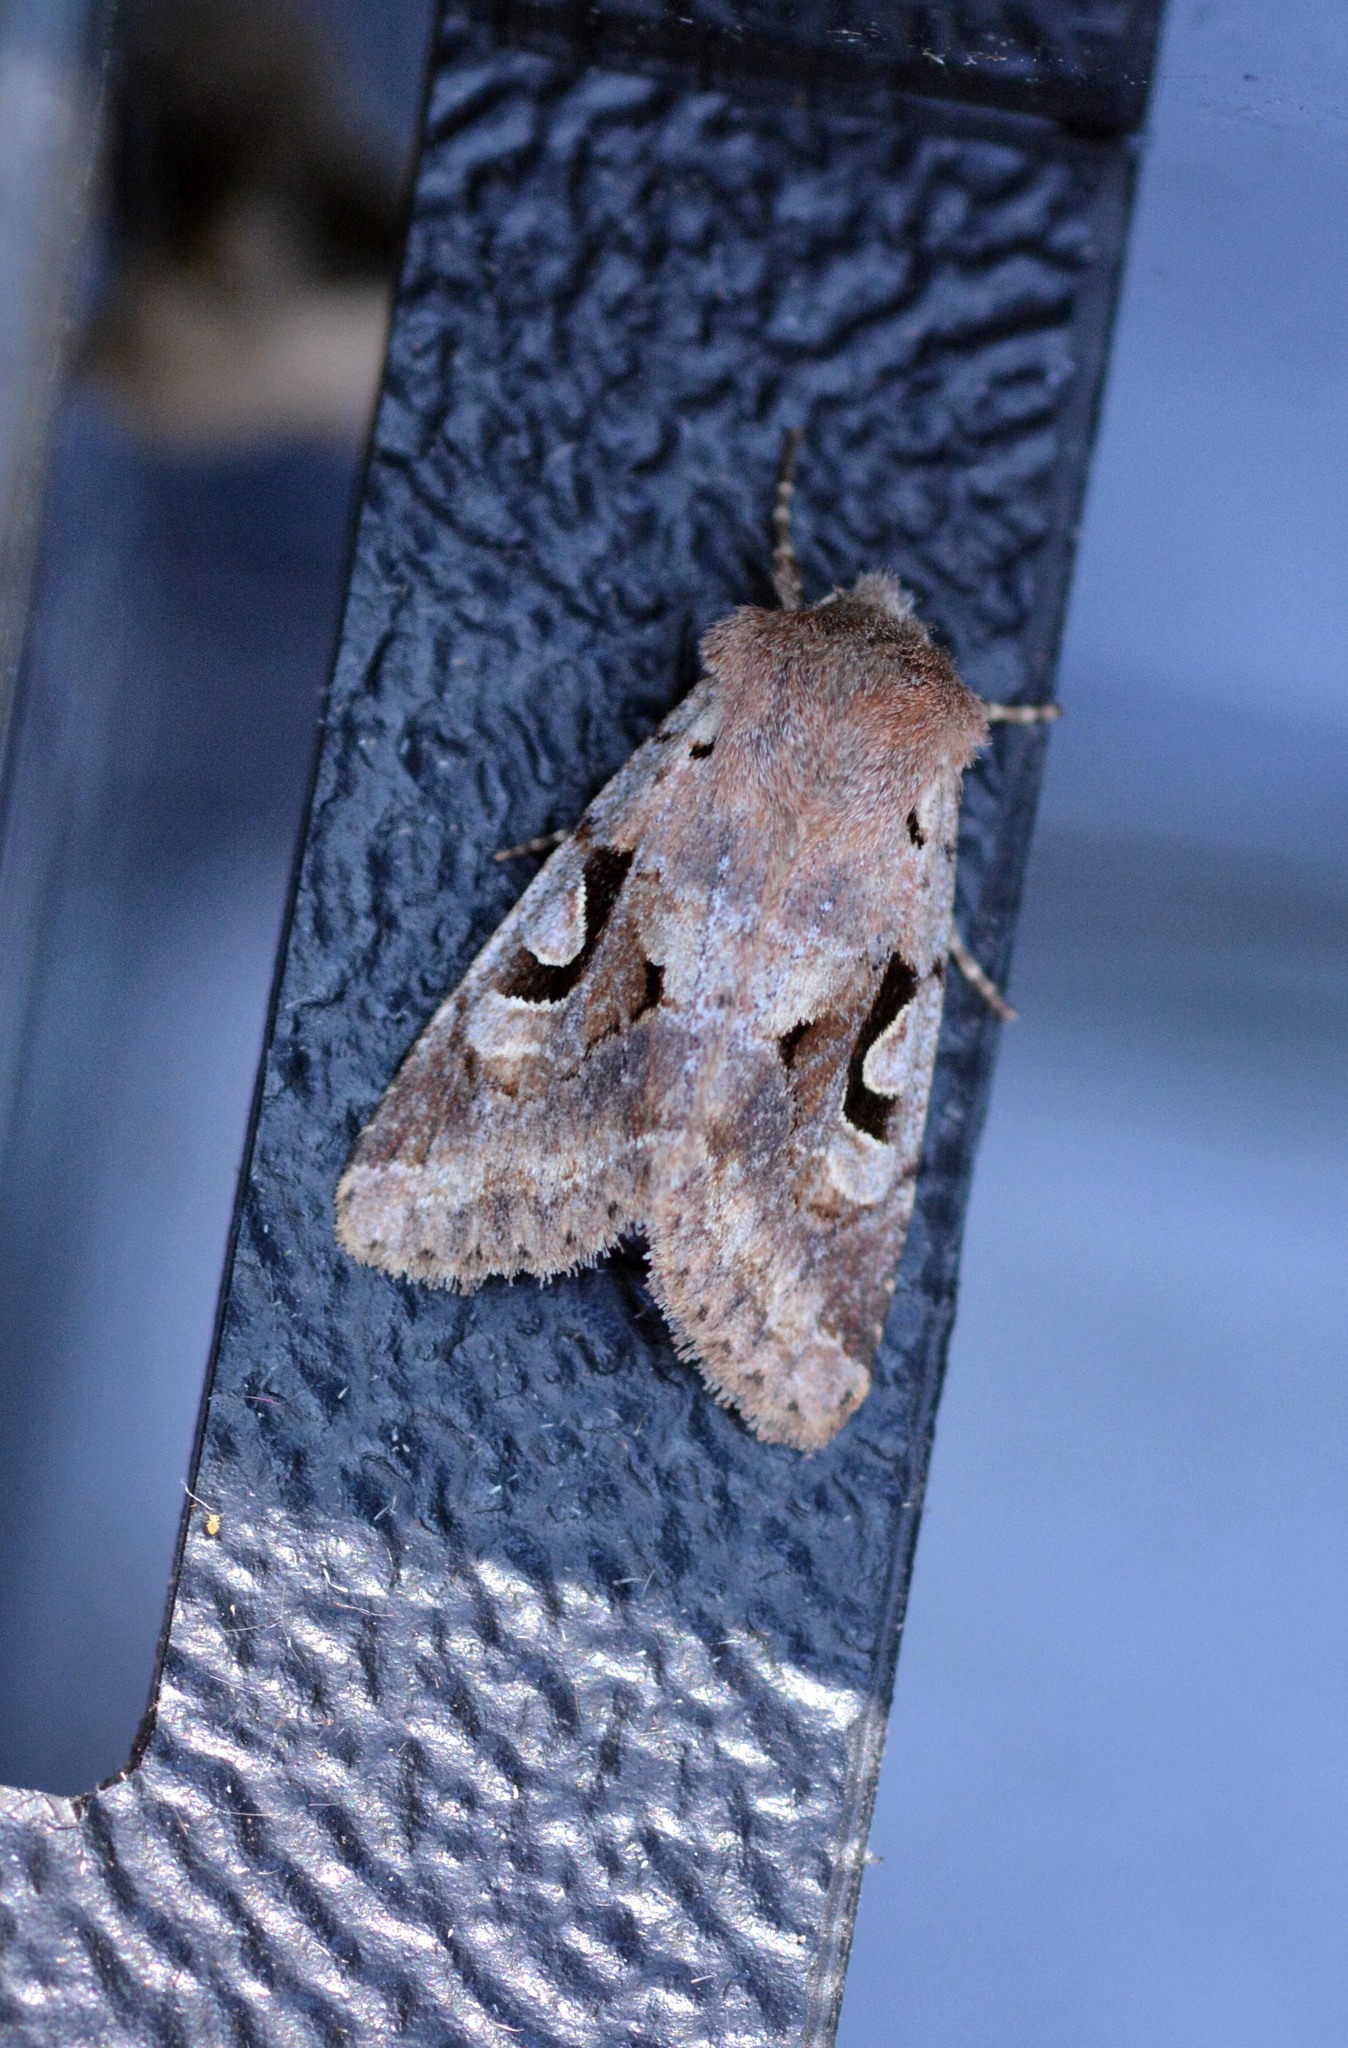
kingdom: Animalia
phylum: Arthropoda
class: Insecta
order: Lepidoptera
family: Noctuidae
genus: Orthosia
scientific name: Orthosia gothica
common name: Hebrew character
